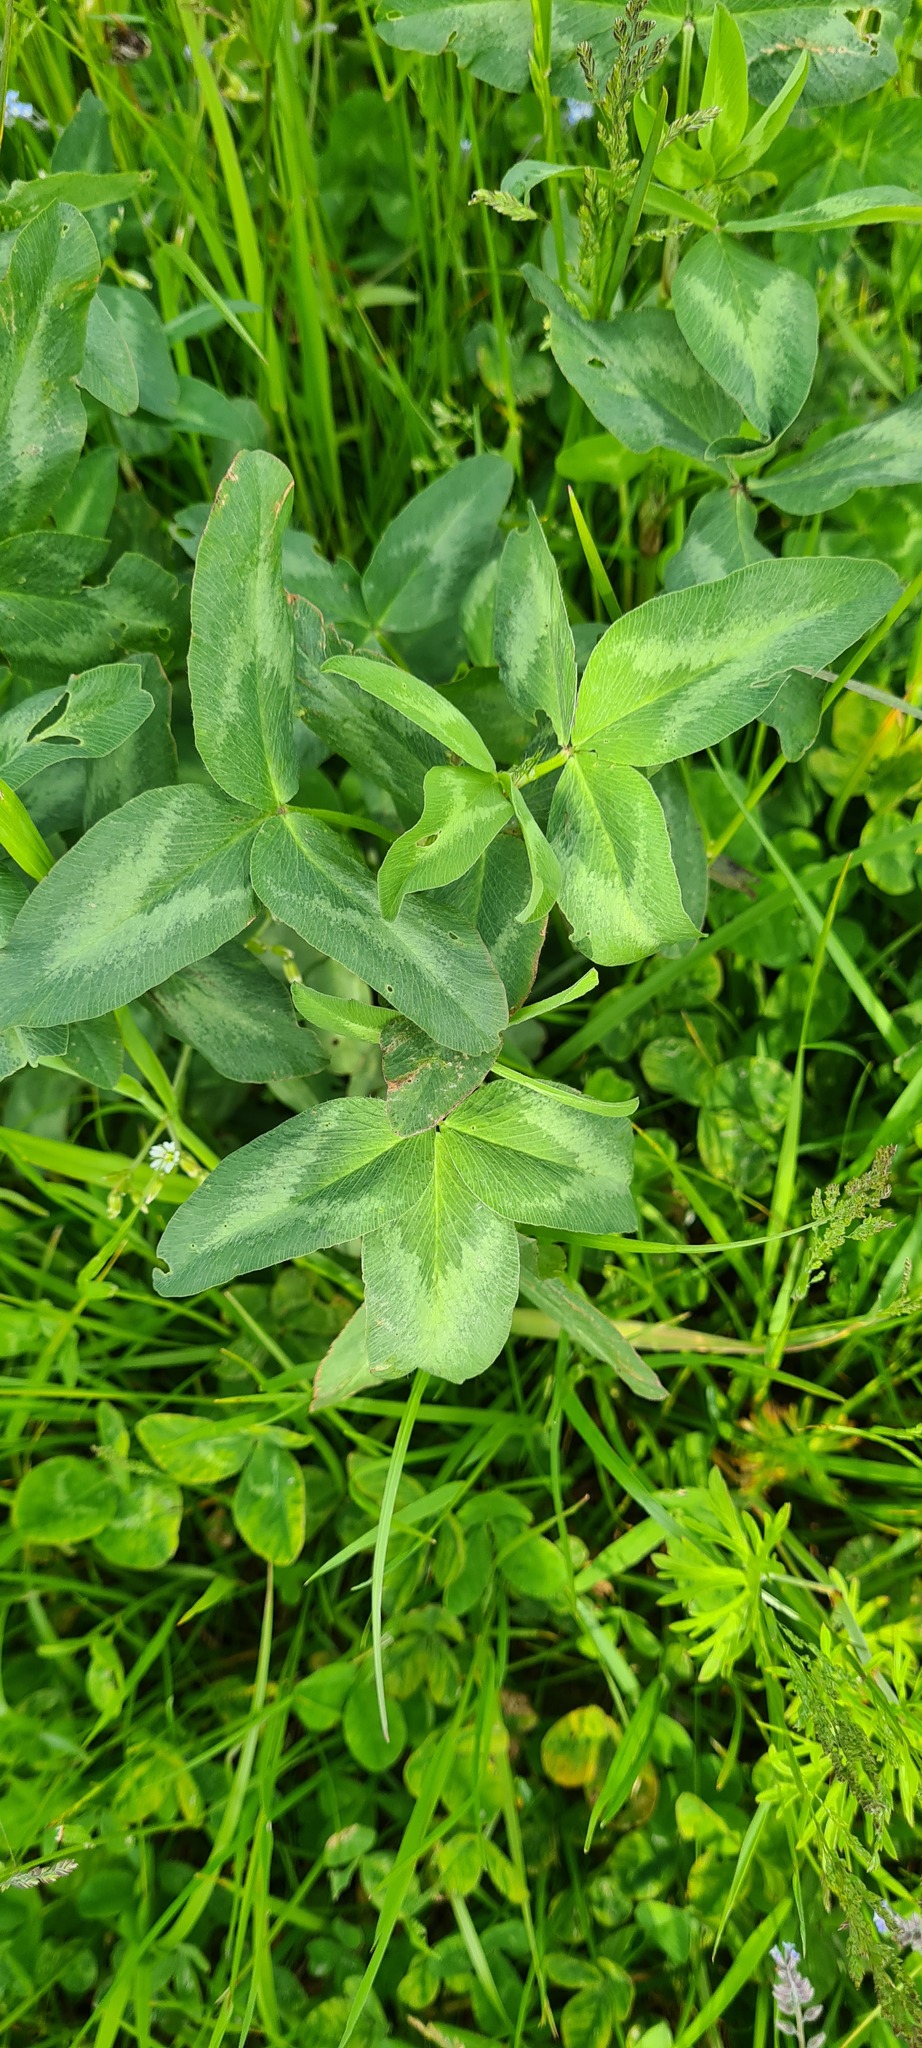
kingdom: Plantae
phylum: Tracheophyta
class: Magnoliopsida
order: Fabales
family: Fabaceae
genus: Trifolium
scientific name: Trifolium pratense
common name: Red clover
